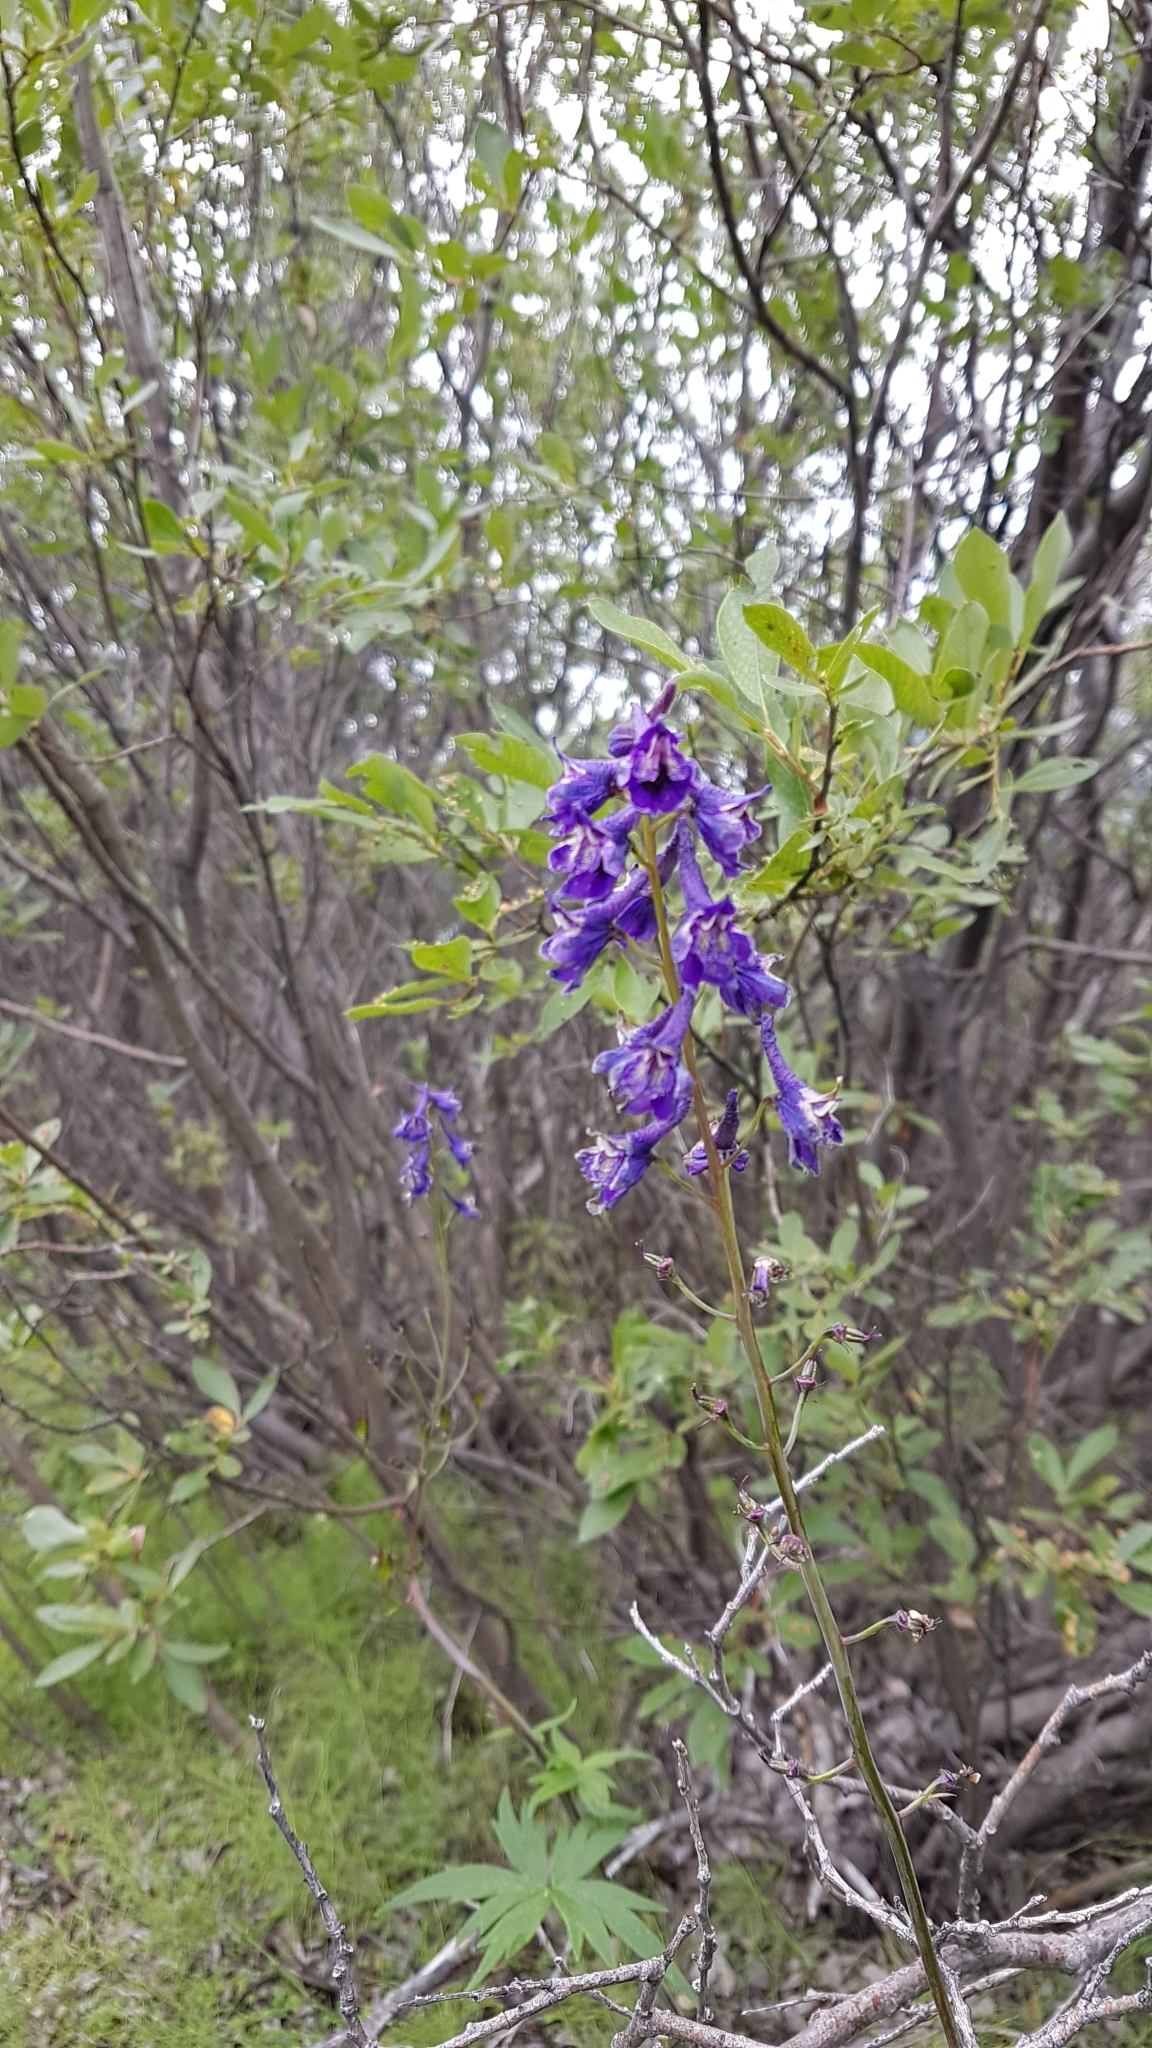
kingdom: Plantae
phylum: Tracheophyta
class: Magnoliopsida
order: Ranunculales
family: Ranunculaceae
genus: Delphinium
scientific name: Delphinium glaucum
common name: Brown's larkspur
